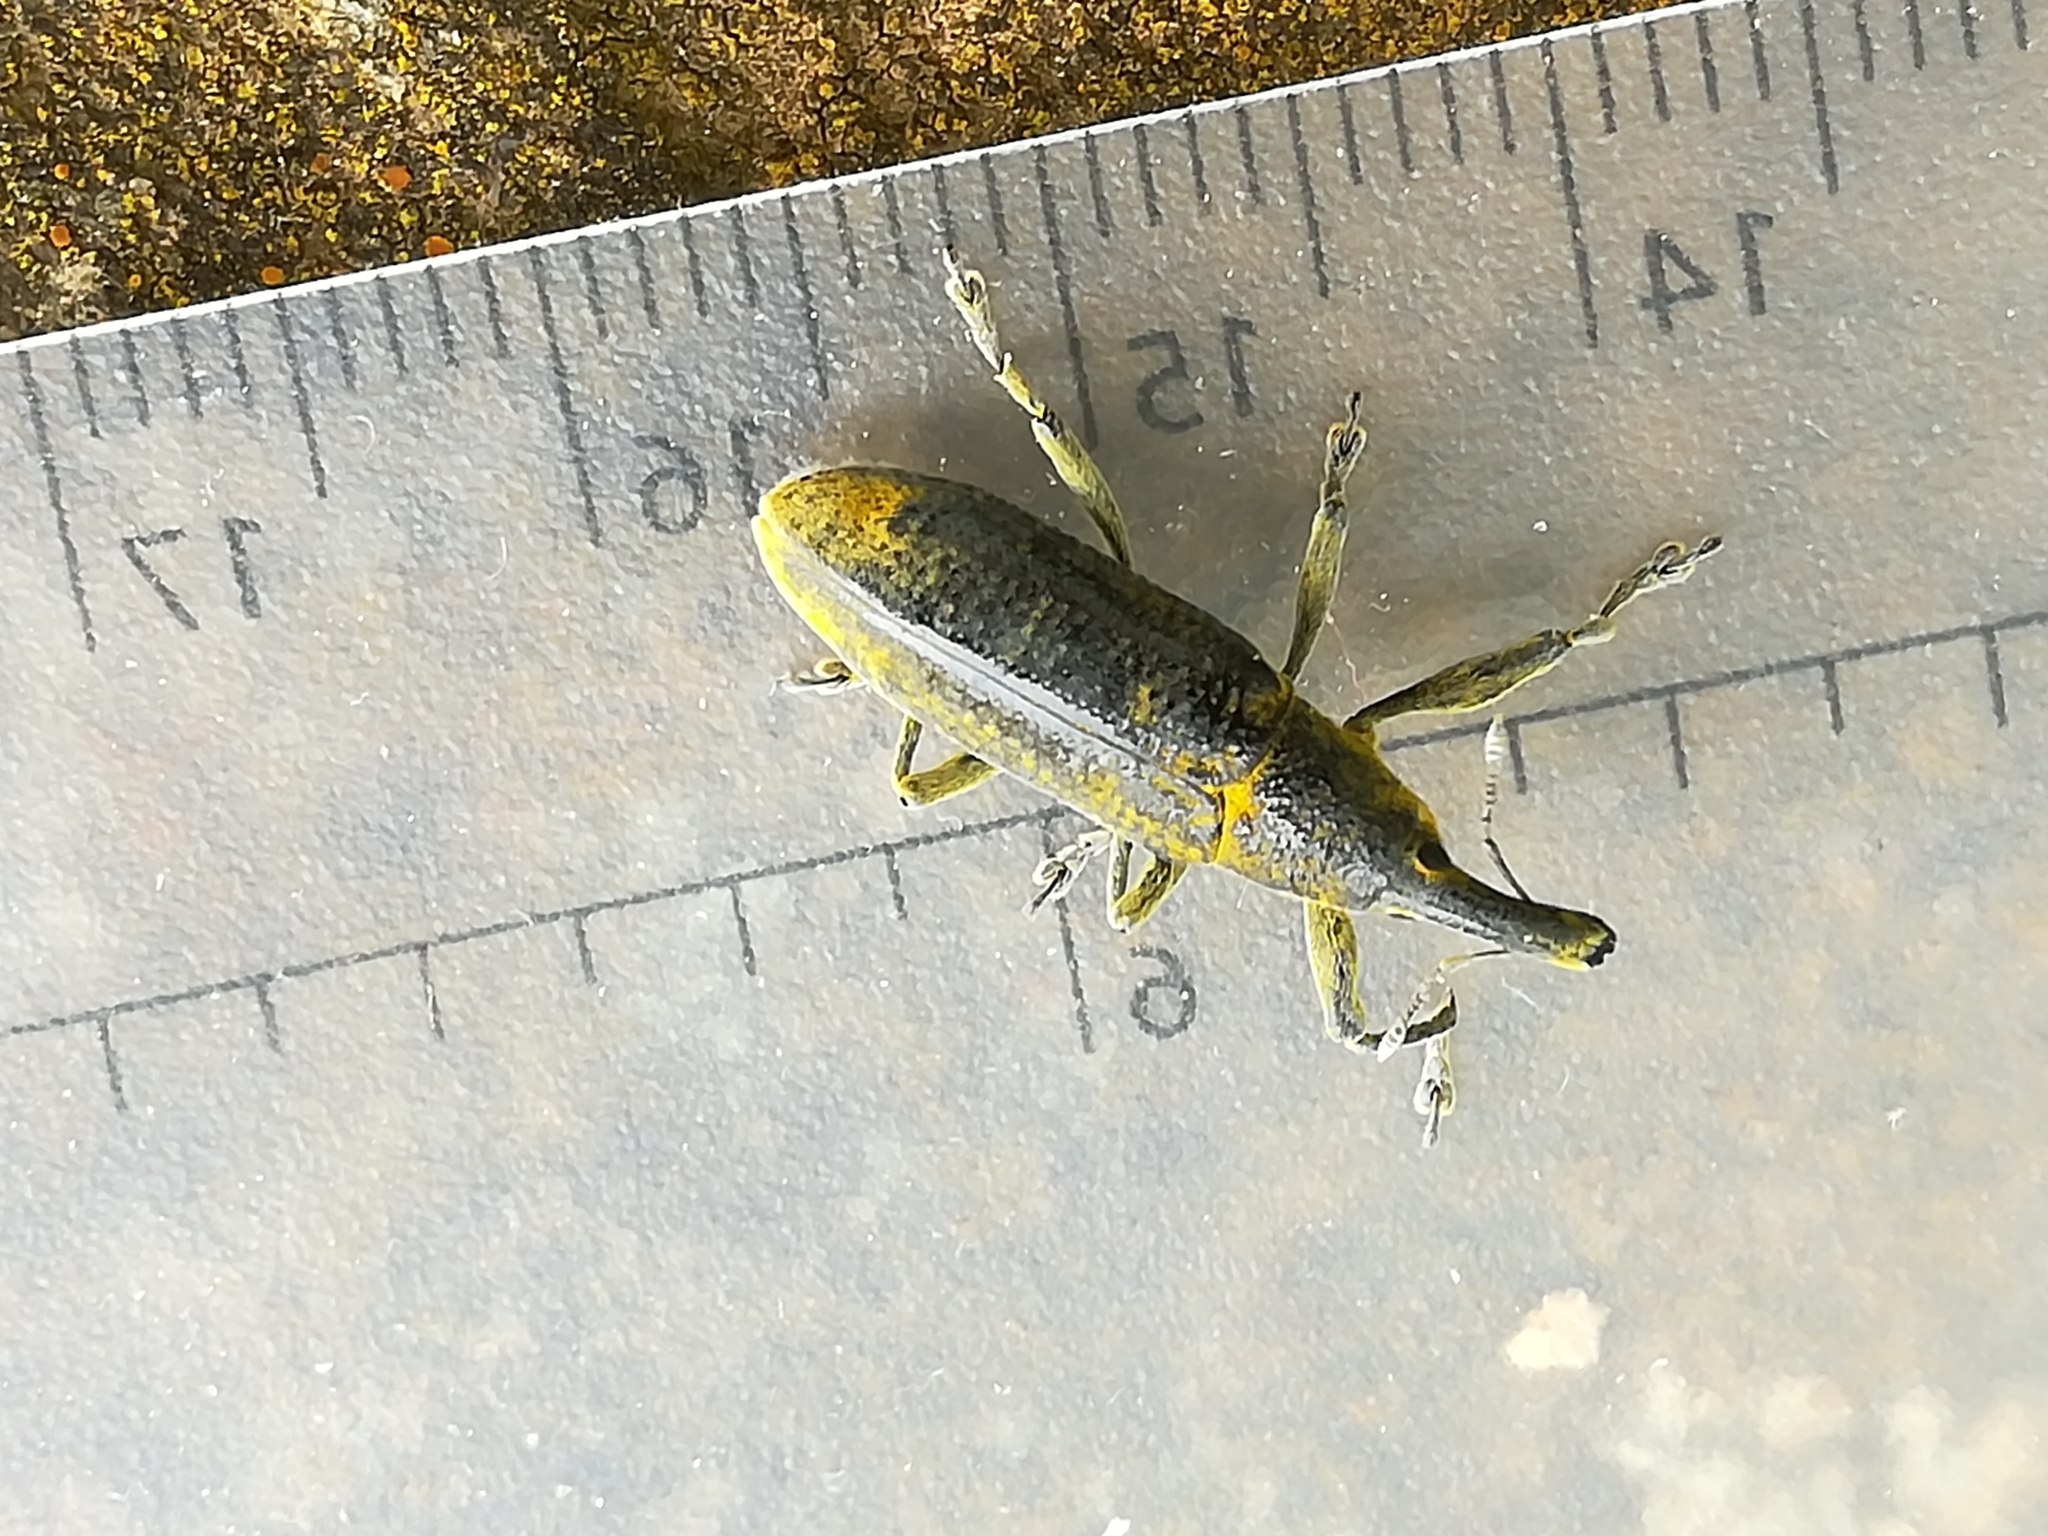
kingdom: Animalia
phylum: Arthropoda
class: Insecta
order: Coleoptera
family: Curculionidae
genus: Lixus
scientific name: Lixus pulverulentus
